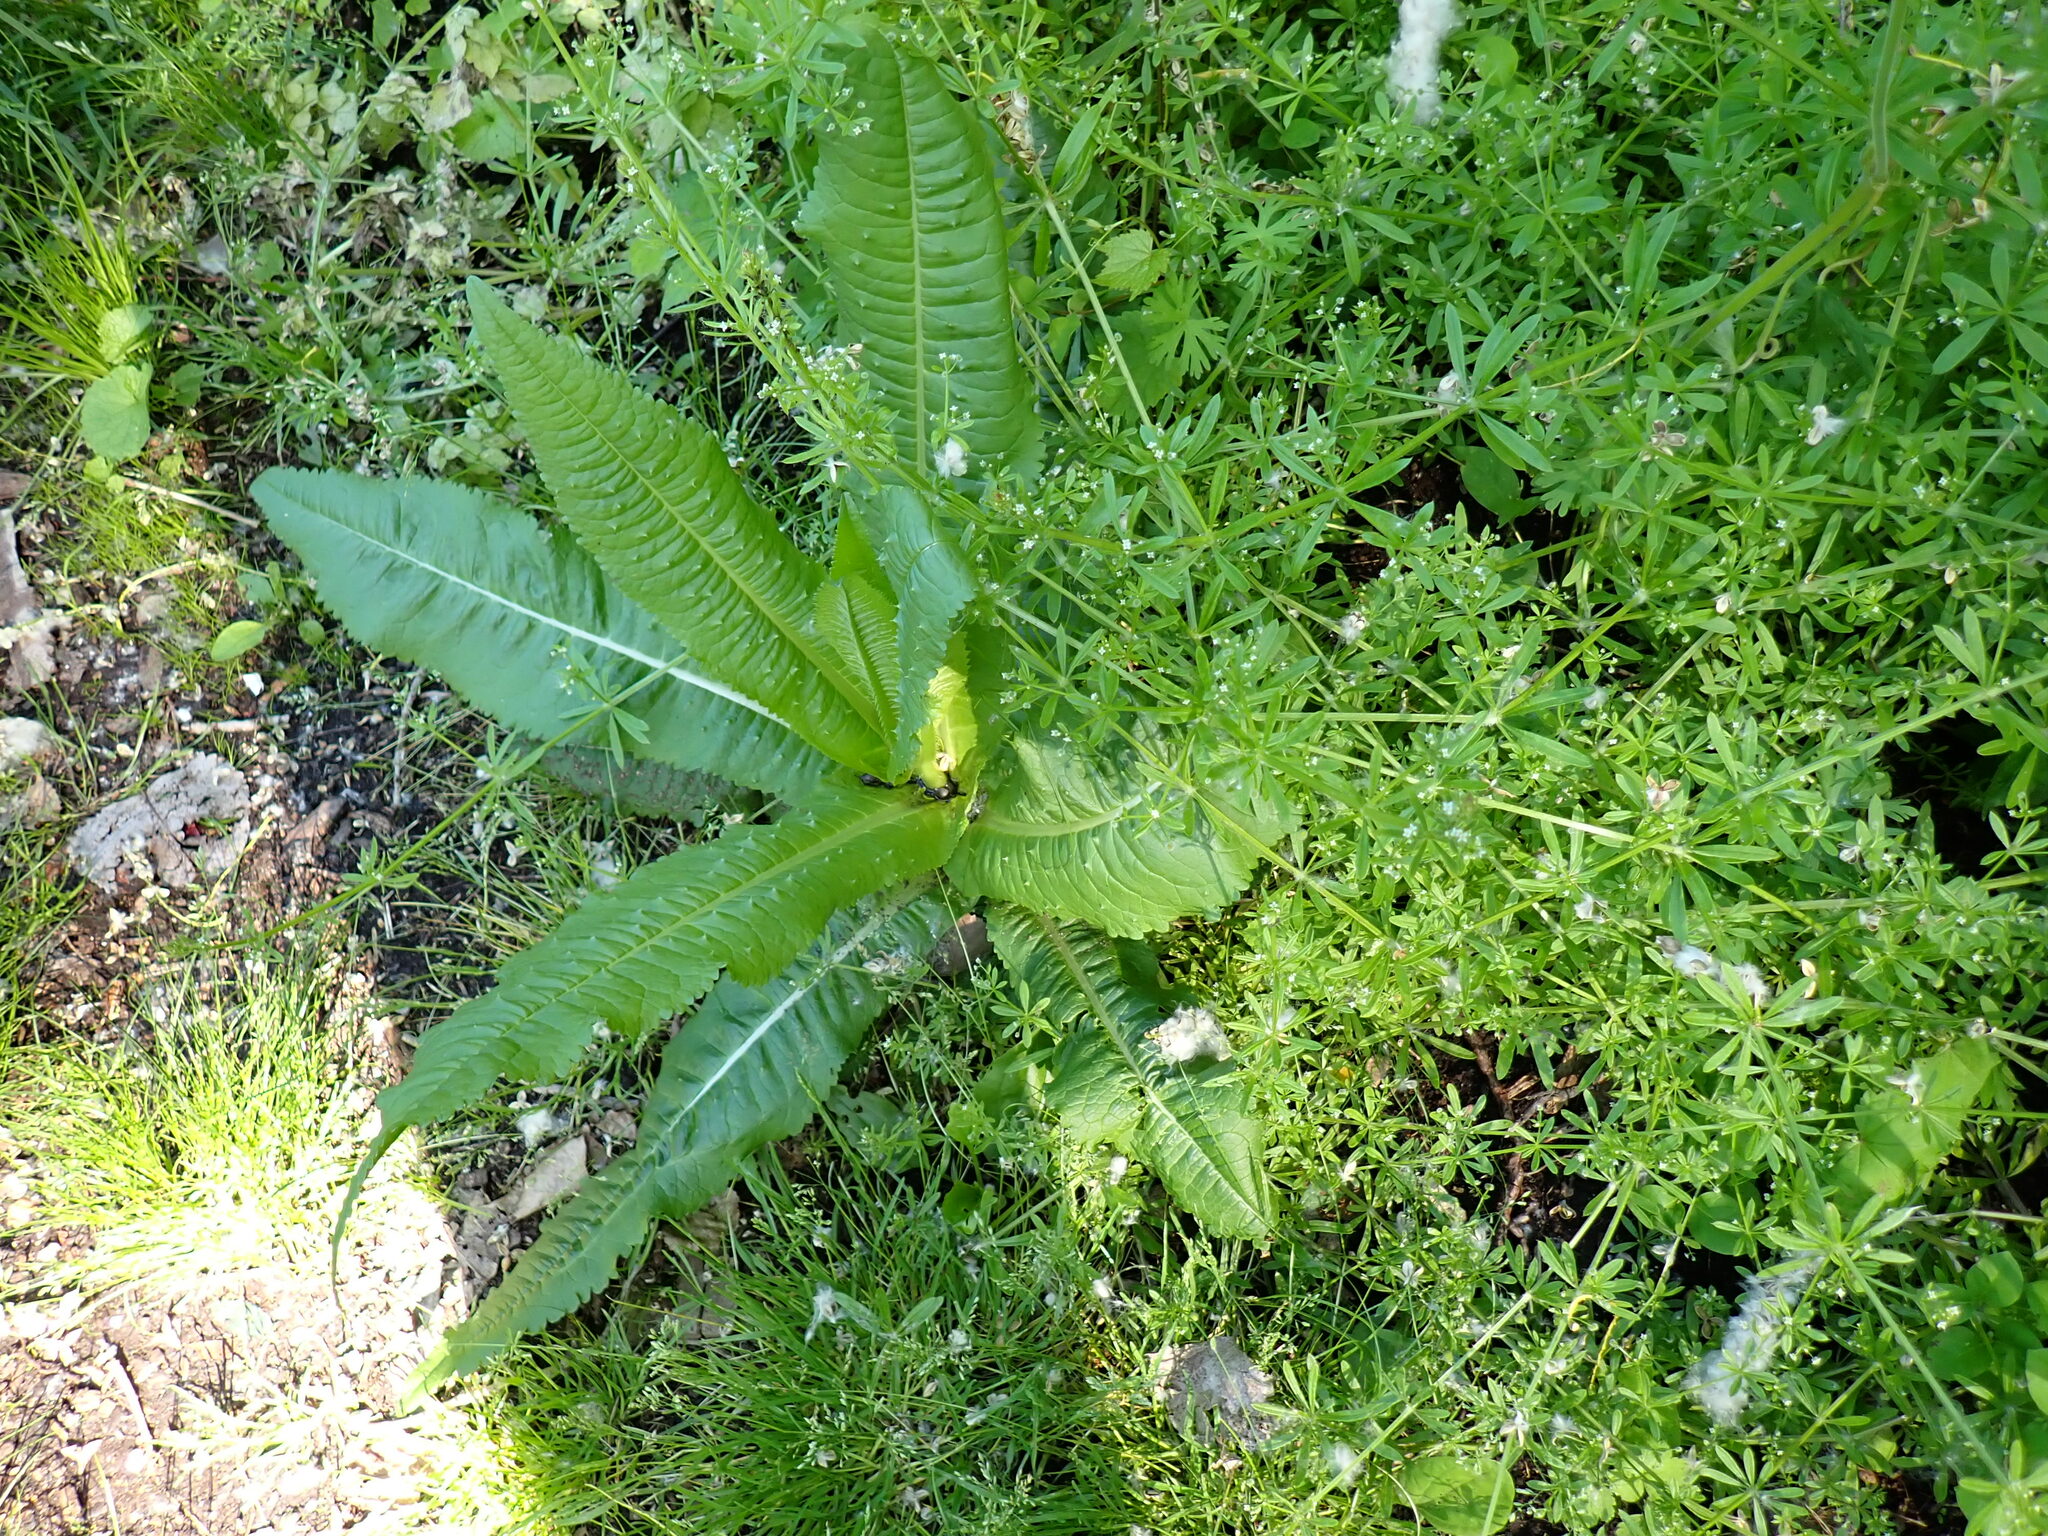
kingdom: Plantae
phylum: Tracheophyta
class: Magnoliopsida
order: Dipsacales
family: Caprifoliaceae
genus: Dipsacus
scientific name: Dipsacus fullonum
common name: Teasel
